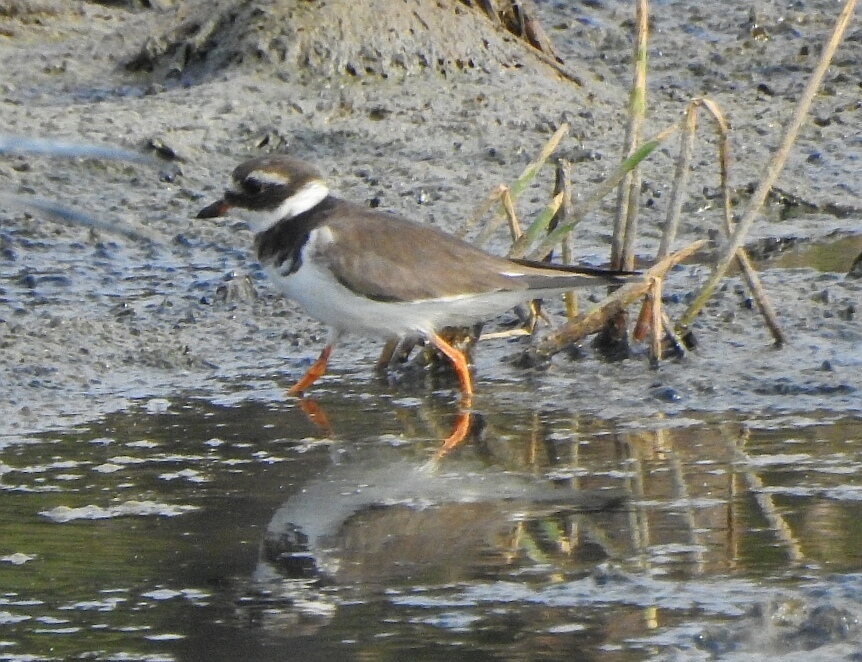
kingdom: Animalia
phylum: Chordata
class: Aves
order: Charadriiformes
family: Charadriidae
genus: Charadrius
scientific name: Charadrius hiaticula
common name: Common ringed plover
